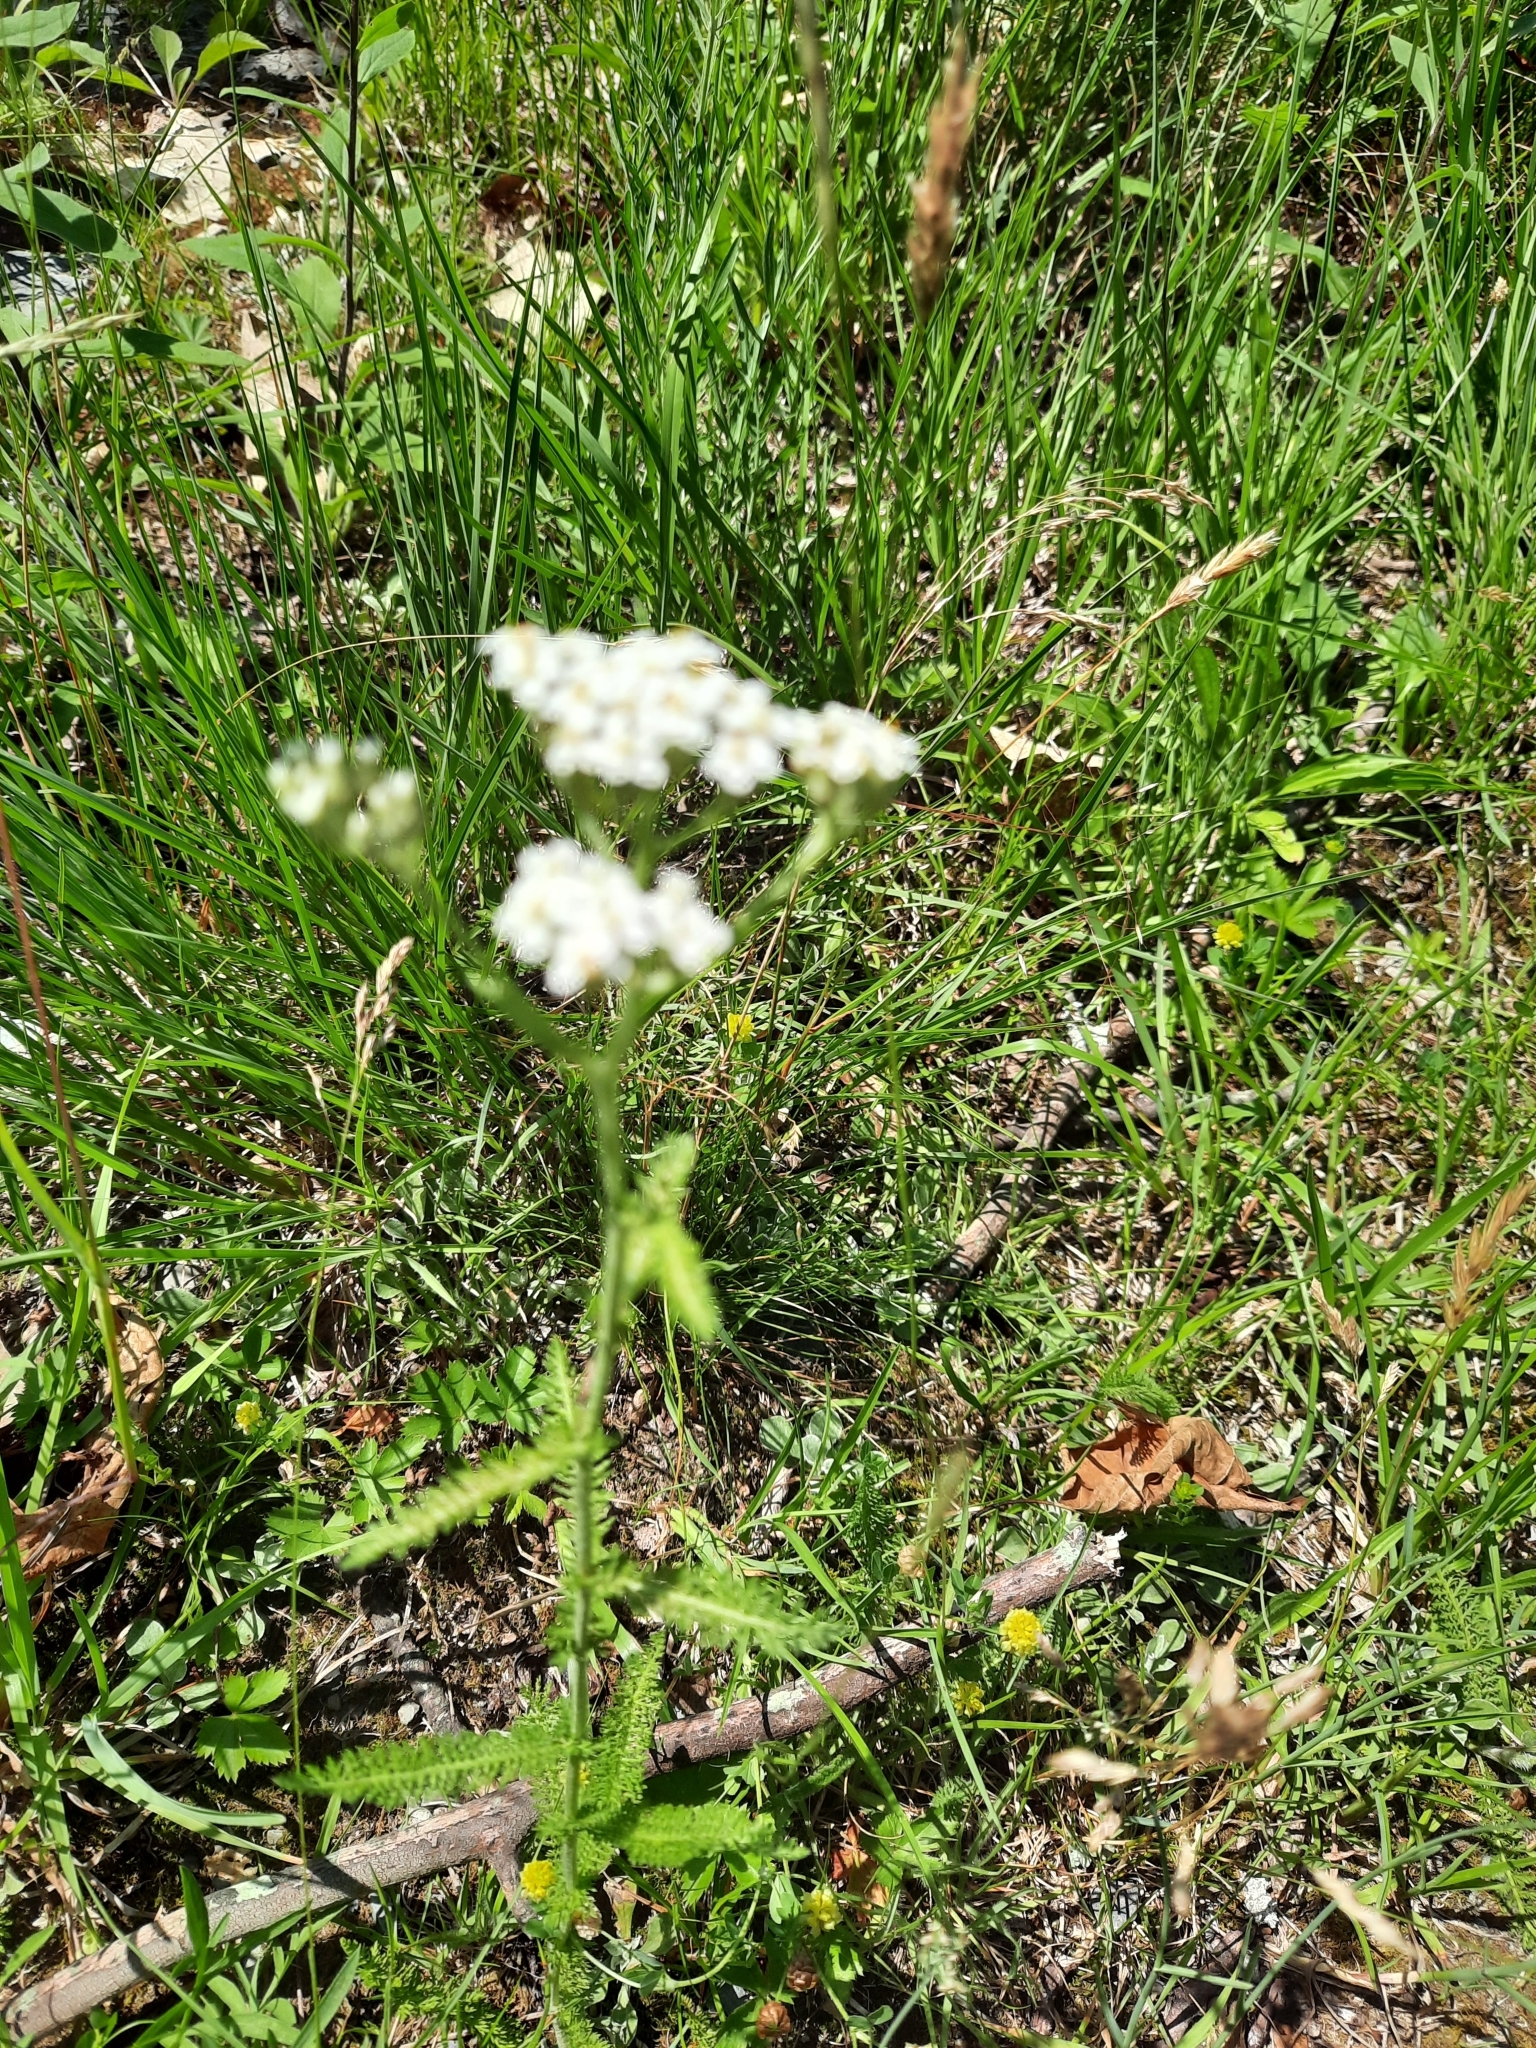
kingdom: Plantae
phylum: Tracheophyta
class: Magnoliopsida
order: Asterales
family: Asteraceae
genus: Achillea
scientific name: Achillea millefolium
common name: Yarrow
